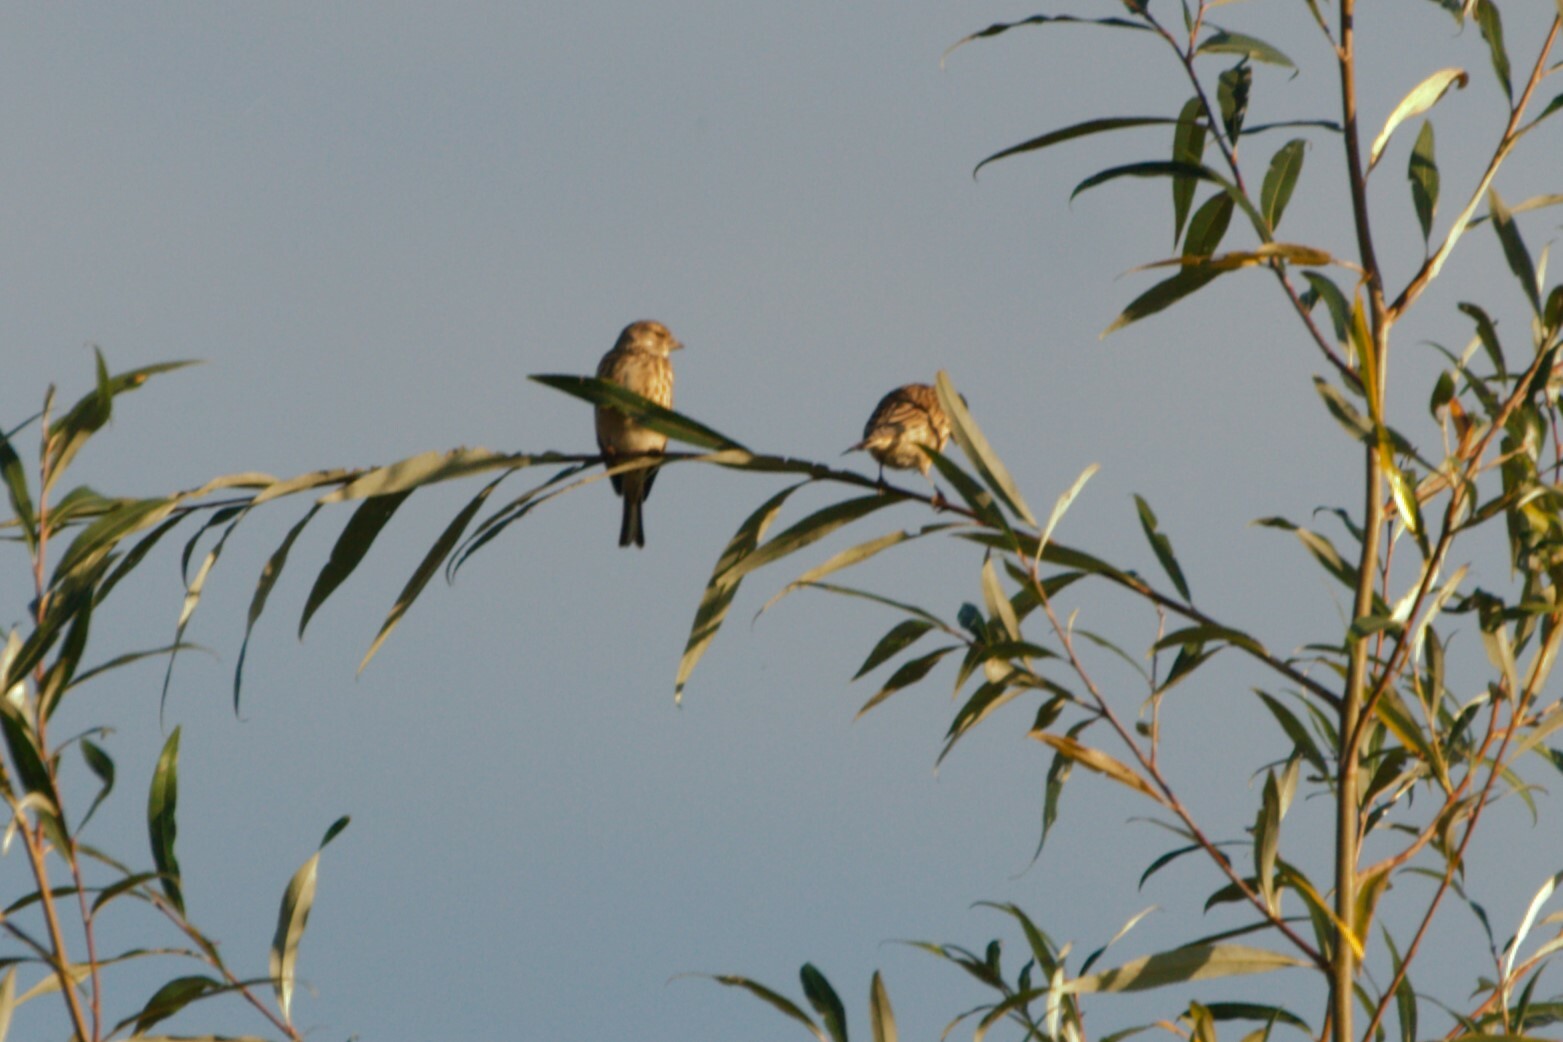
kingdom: Animalia
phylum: Chordata
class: Aves
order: Passeriformes
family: Fringillidae
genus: Linaria
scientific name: Linaria cannabina
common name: Common linnet
